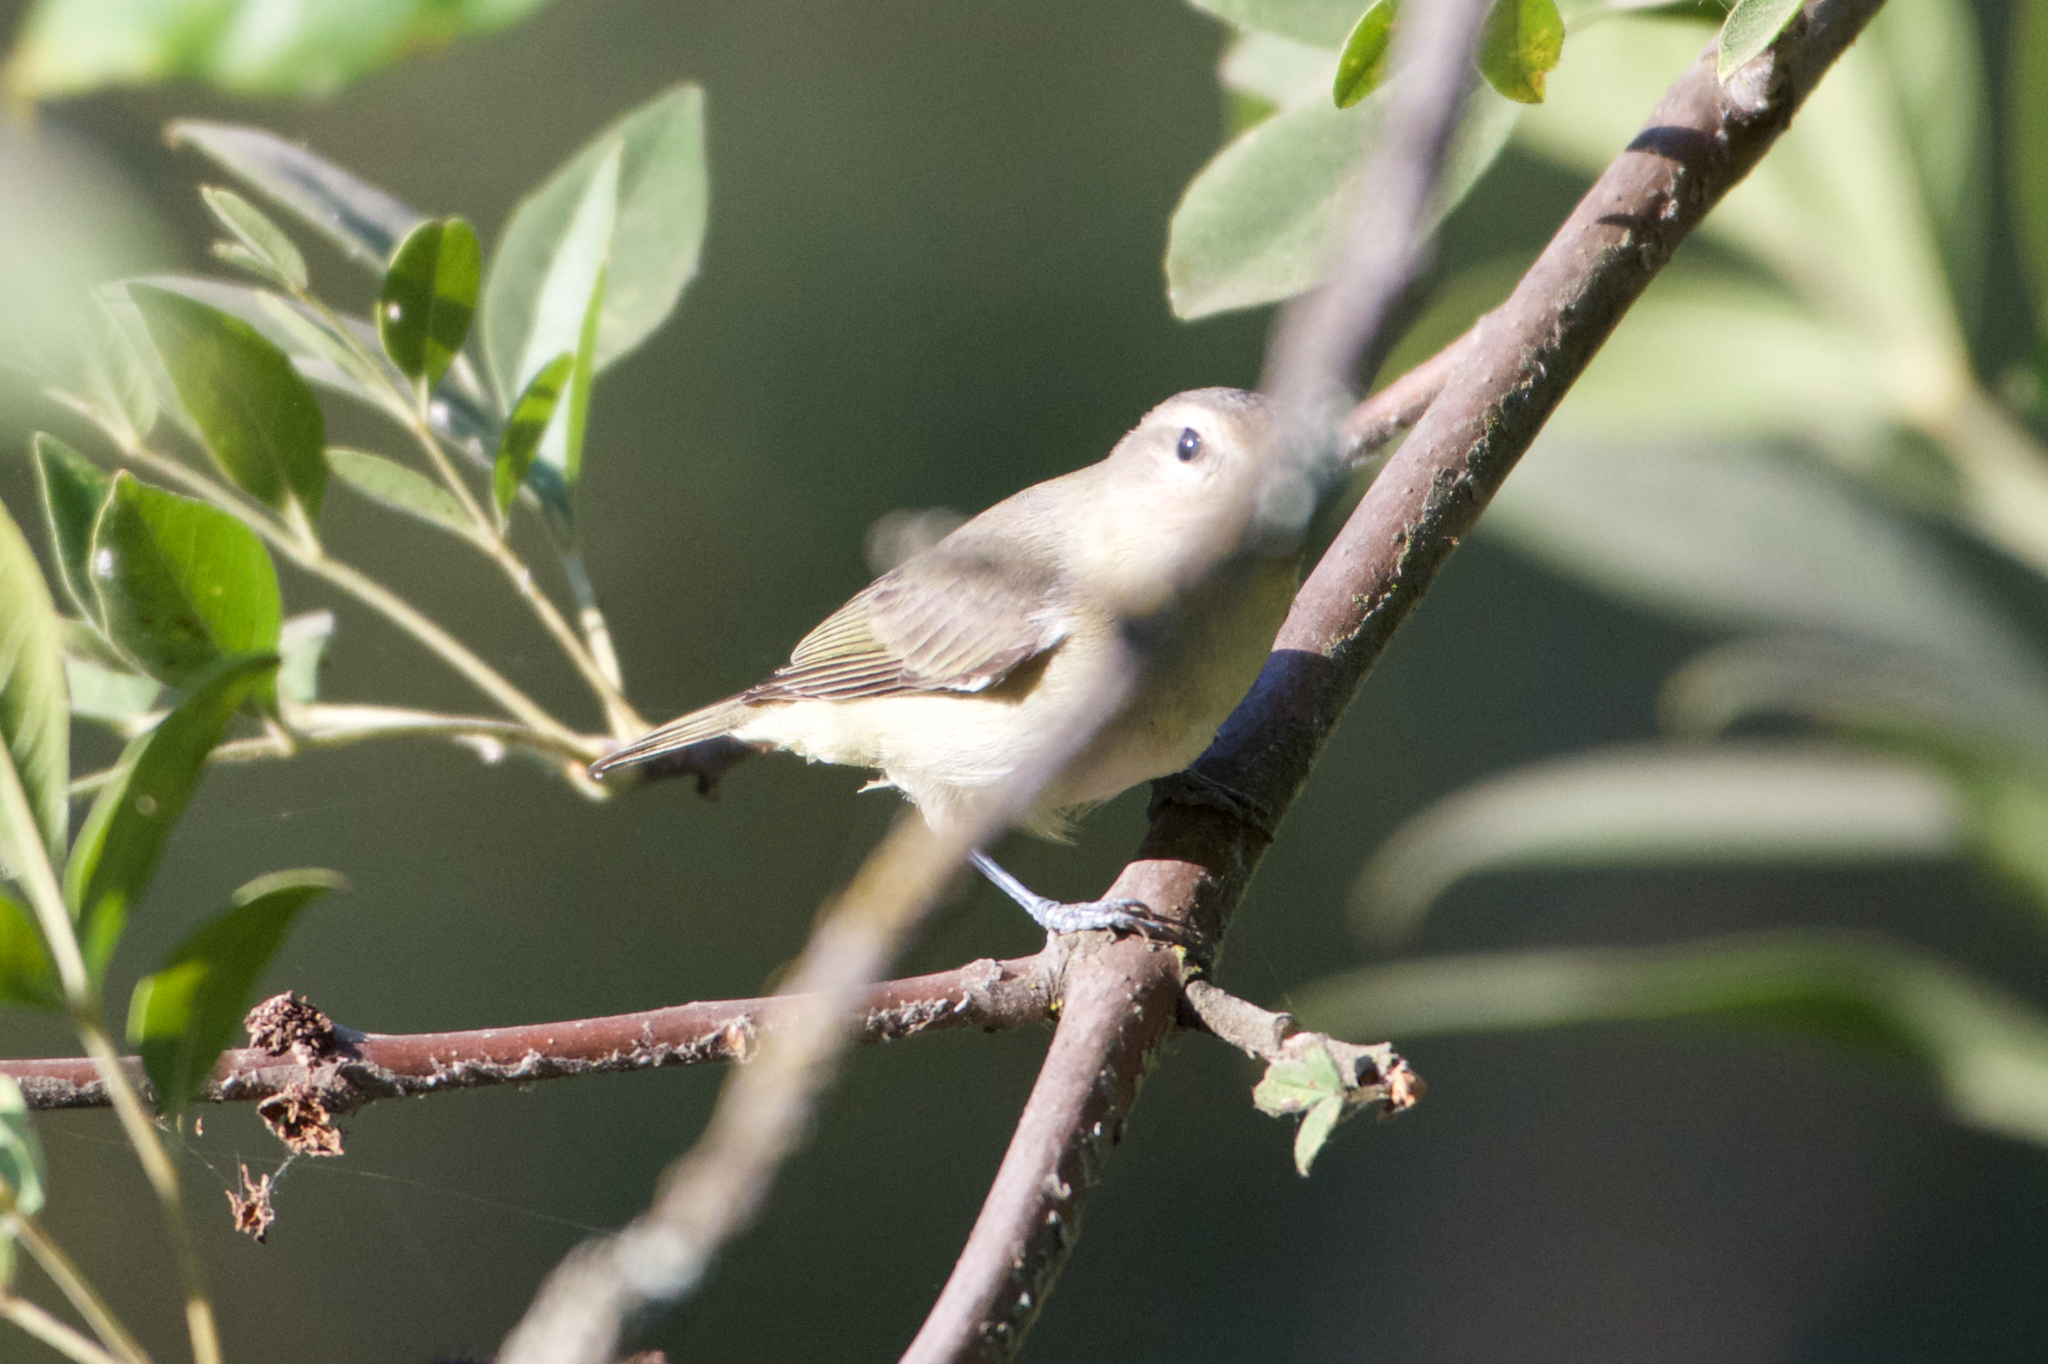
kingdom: Animalia
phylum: Chordata
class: Aves
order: Passeriformes
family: Vireonidae
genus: Vireo
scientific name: Vireo gilvus
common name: Warbling vireo
